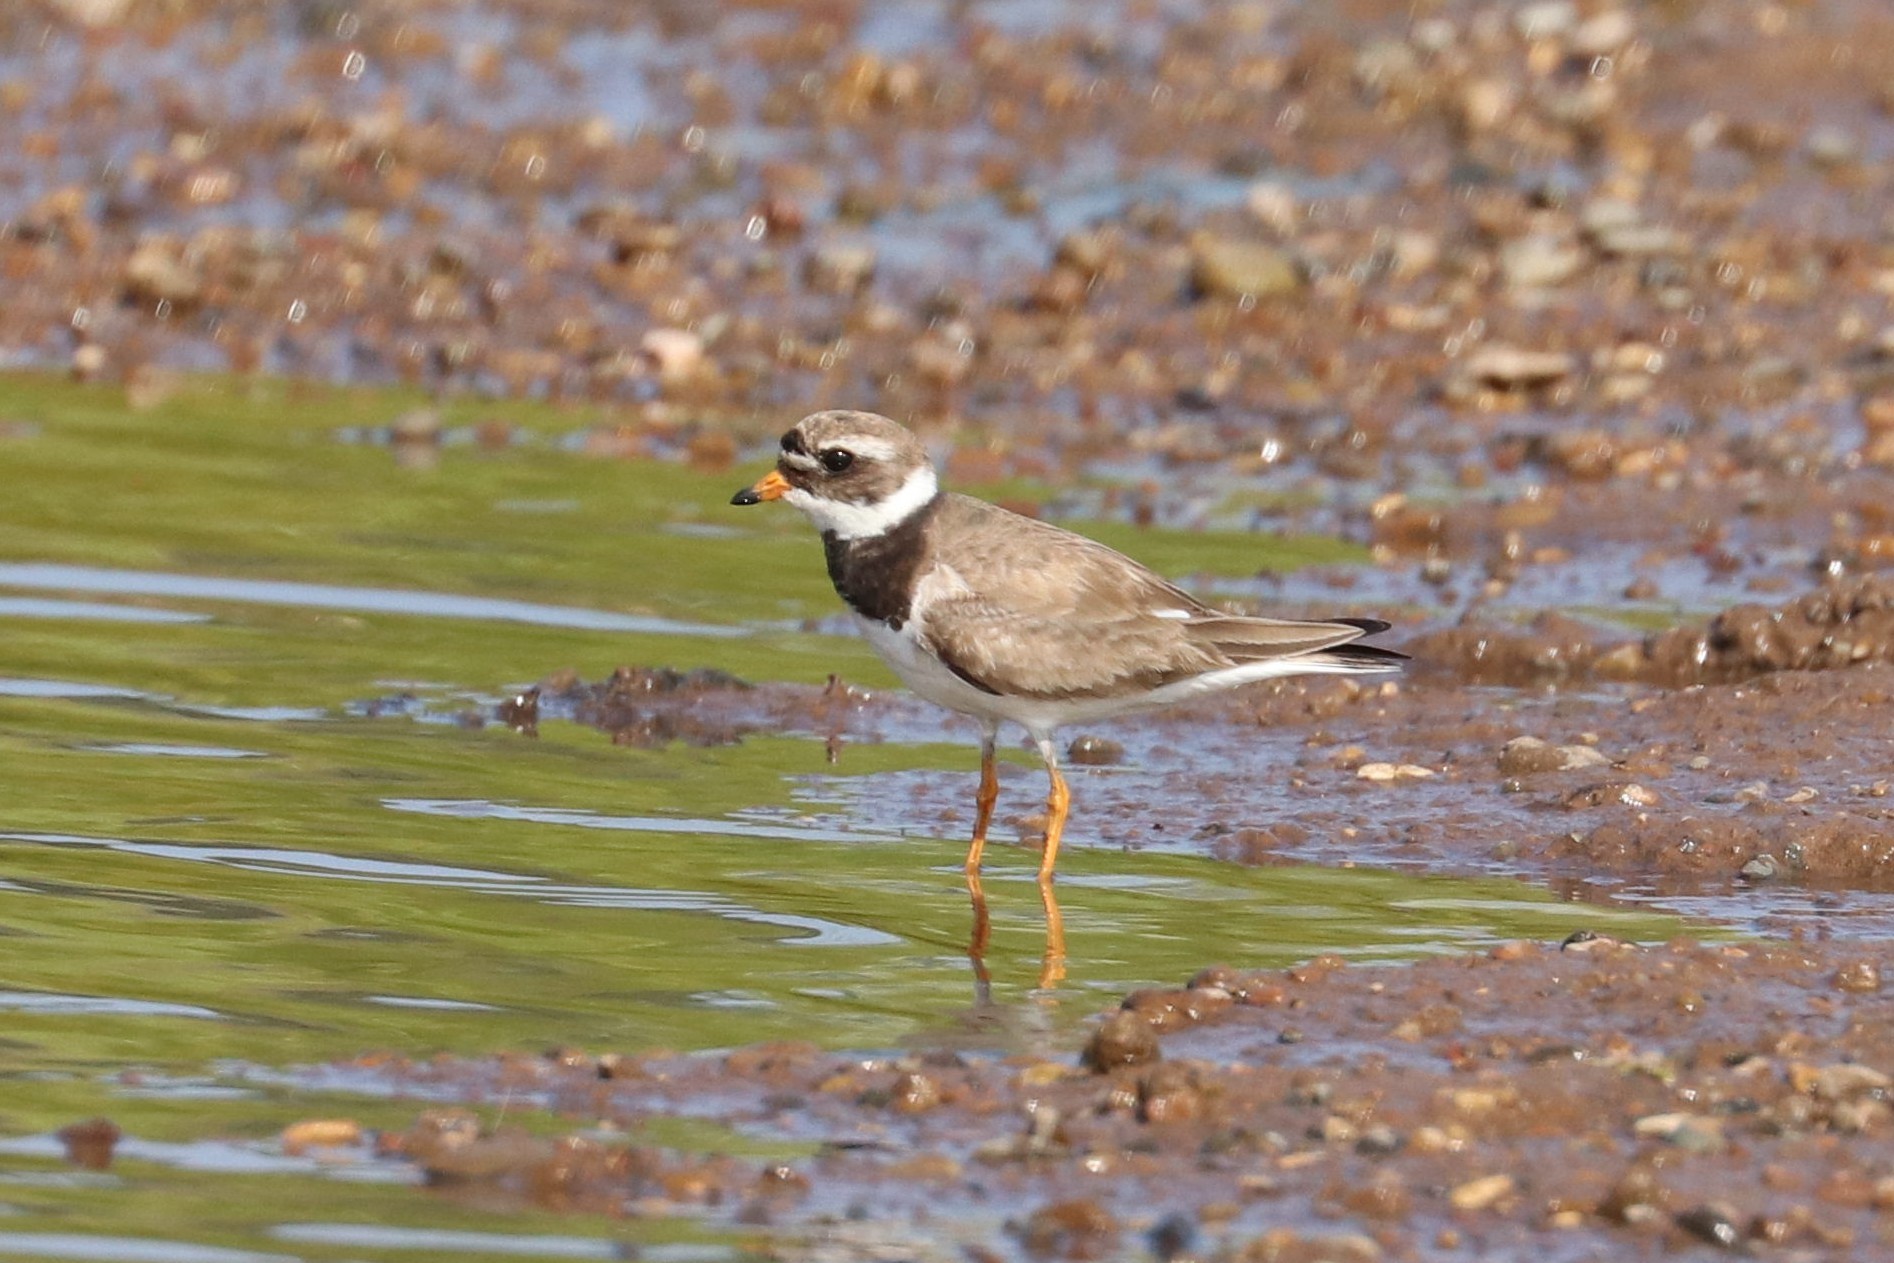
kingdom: Animalia
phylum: Chordata
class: Aves
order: Charadriiformes
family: Charadriidae
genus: Charadrius
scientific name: Charadrius hiaticula
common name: Common ringed plover
